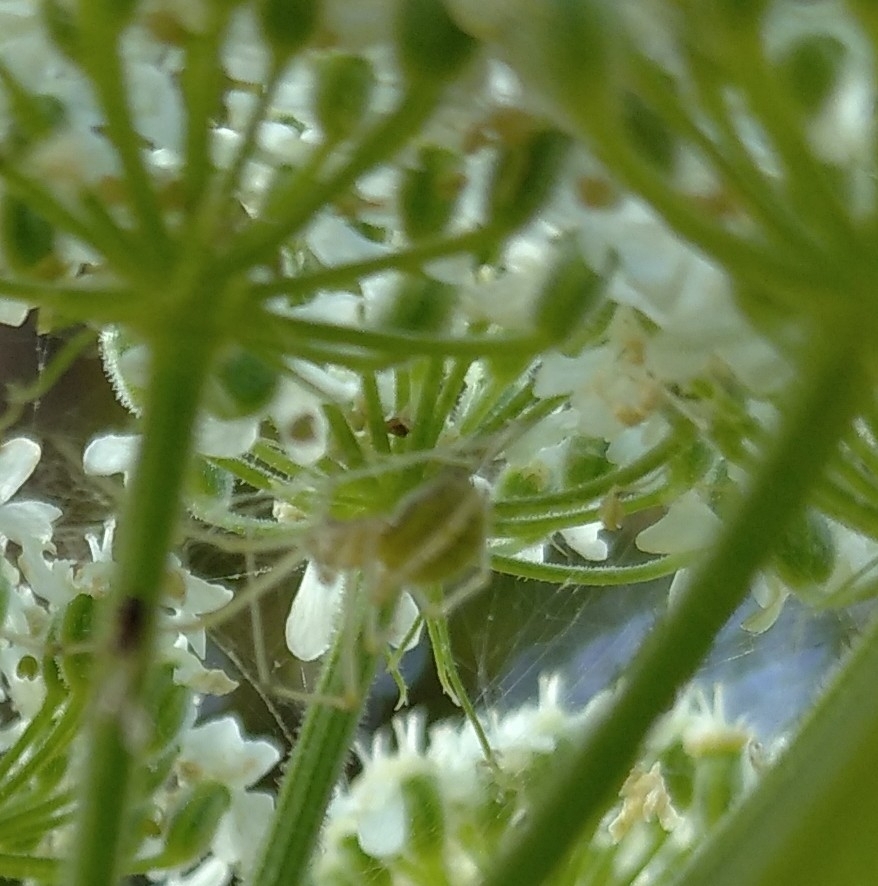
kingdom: Animalia
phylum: Arthropoda
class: Arachnida
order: Araneae
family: Theridiidae
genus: Enoplognatha
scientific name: Enoplognatha ovata
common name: Common candy-striped spider
